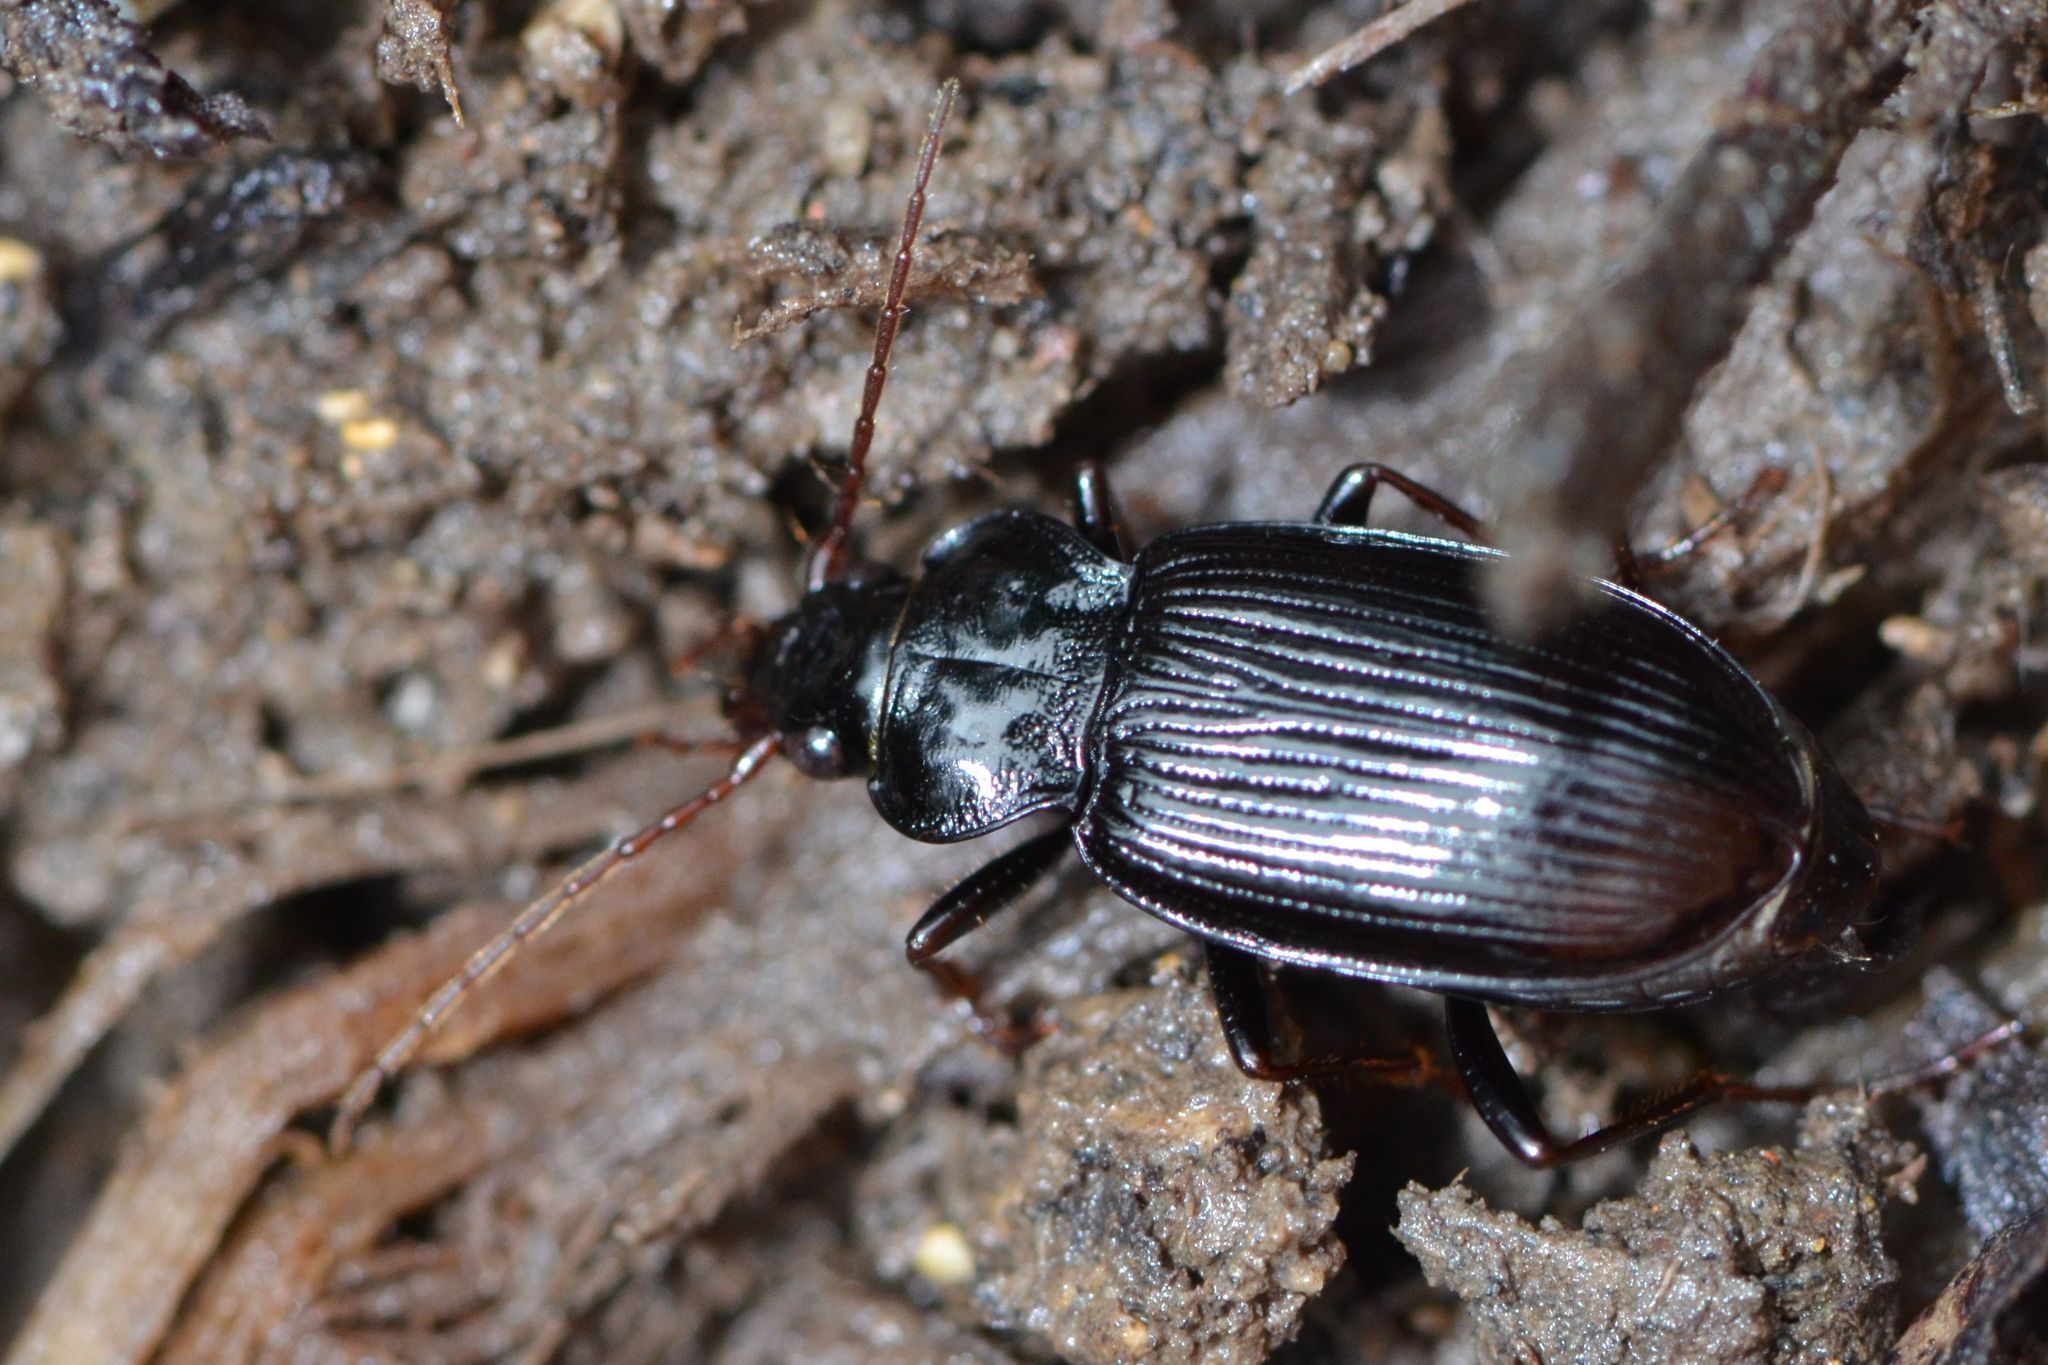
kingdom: Animalia
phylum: Arthropoda
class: Insecta
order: Coleoptera
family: Carabidae
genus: Nebria
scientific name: Nebria brevicollis
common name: Short-necked gazelle beetle
